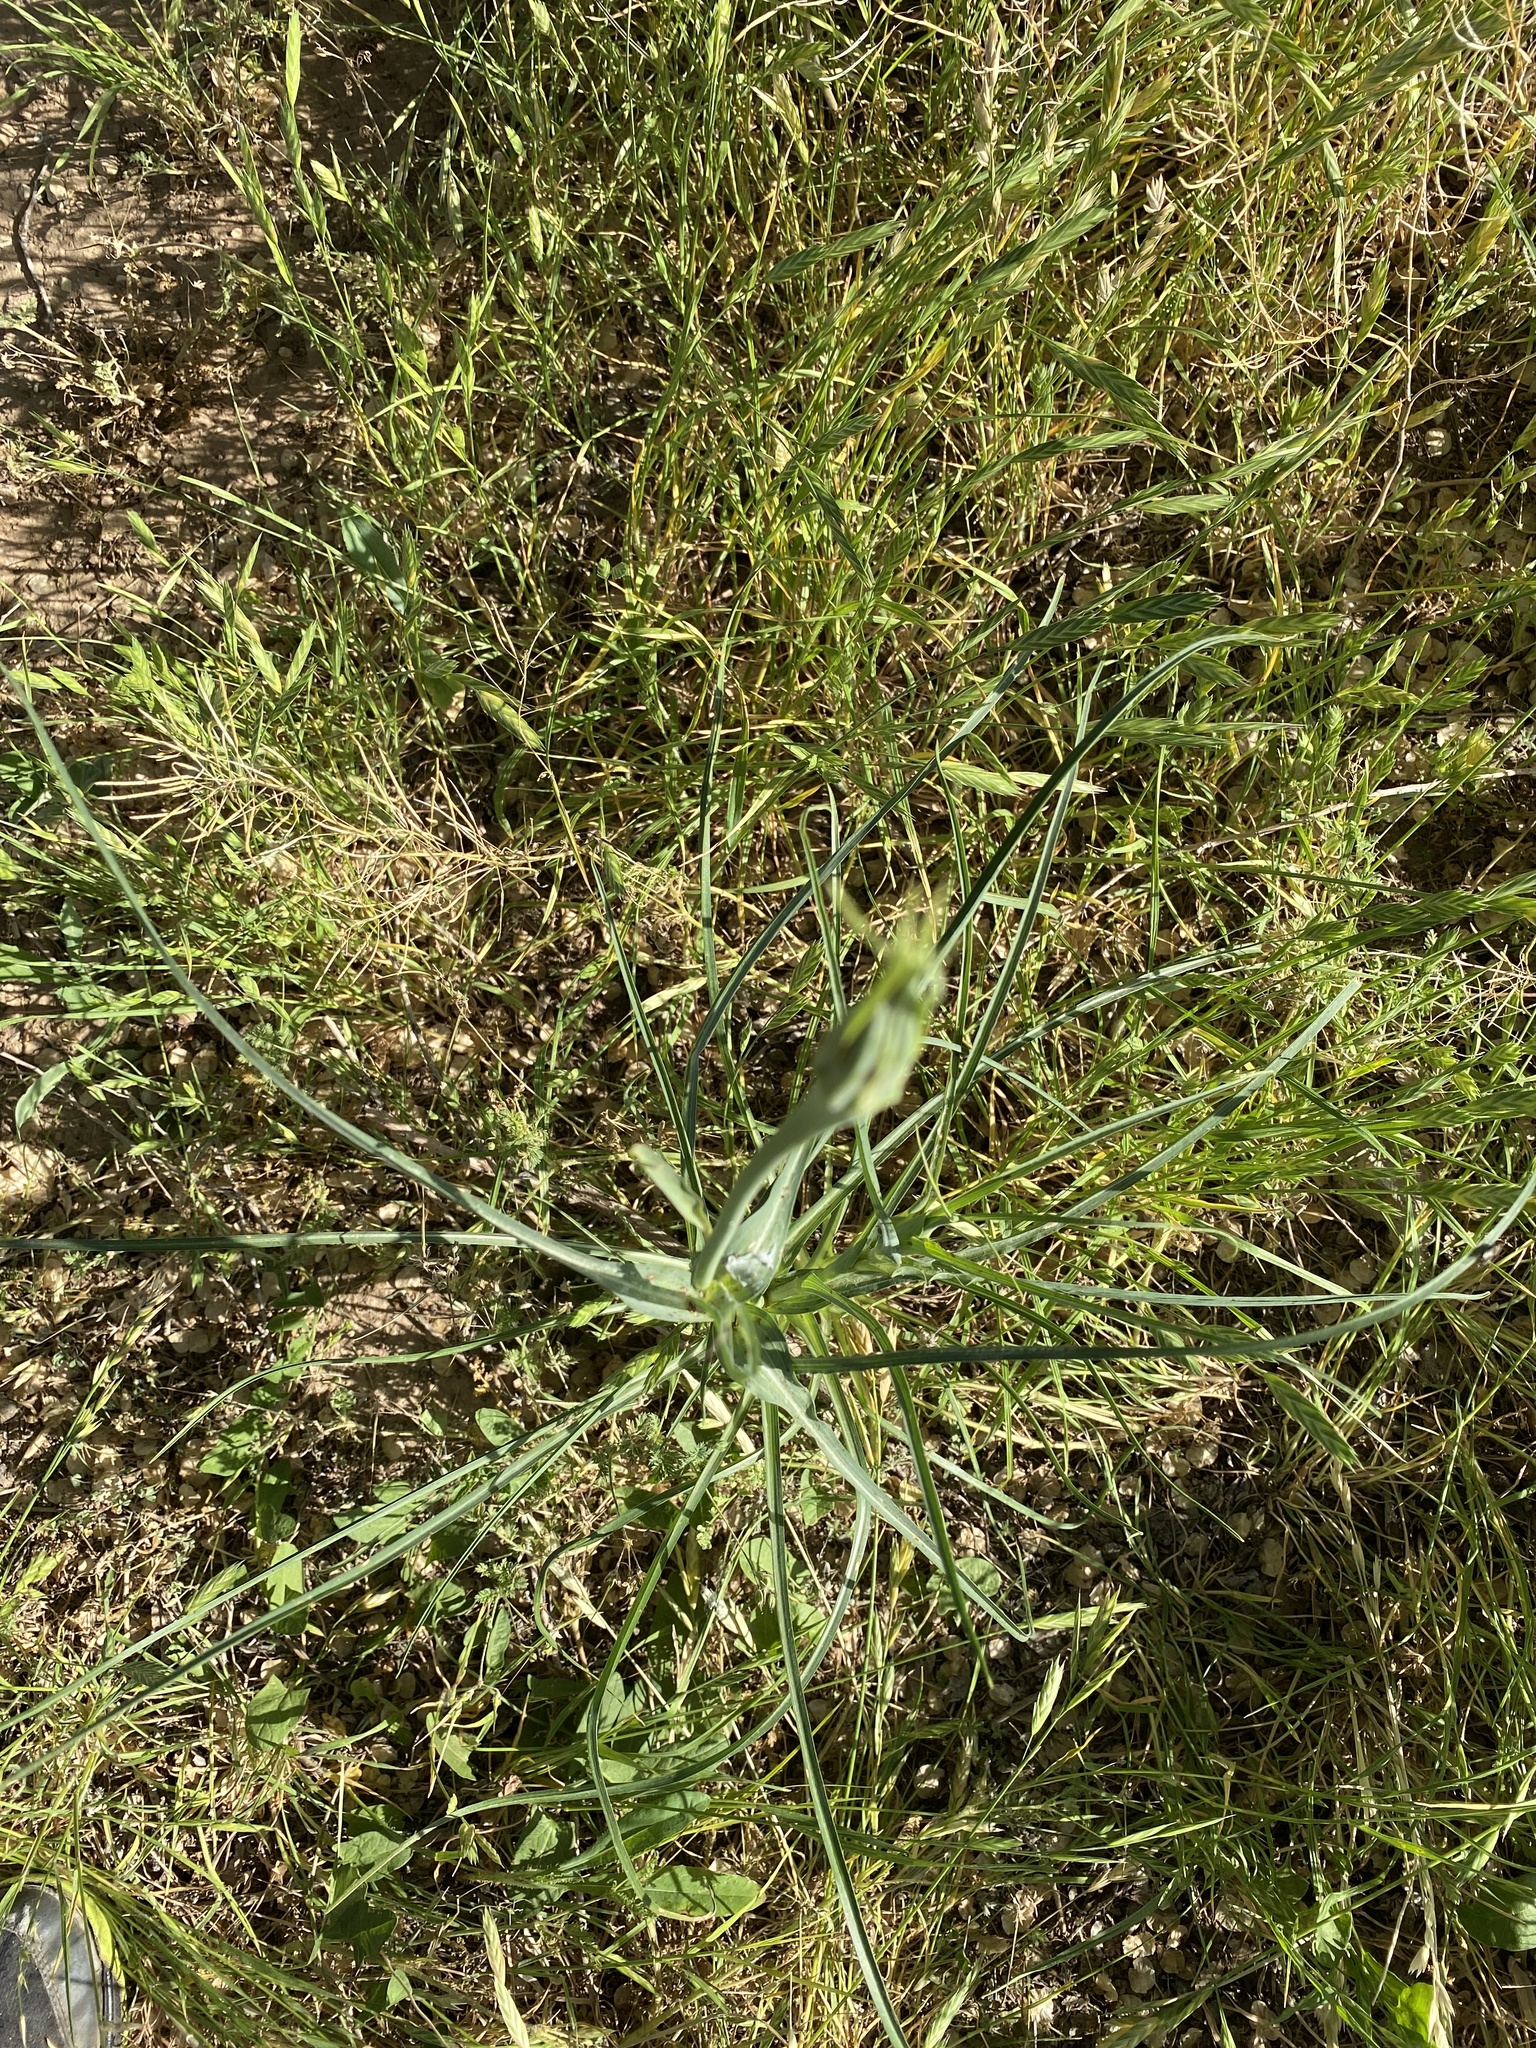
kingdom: Plantae
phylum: Tracheophyta
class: Magnoliopsida
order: Asterales
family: Asteraceae
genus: Tragopogon
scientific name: Tragopogon dubius
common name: Yellow salsify
